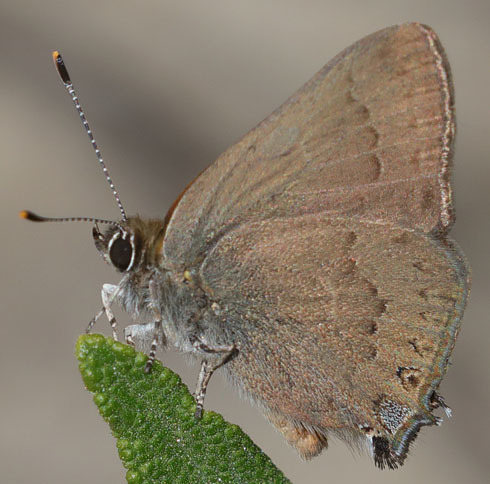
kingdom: Animalia
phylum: Arthropoda
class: Insecta
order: Lepidoptera
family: Lycaenidae
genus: Strymon
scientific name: Strymon saepium
